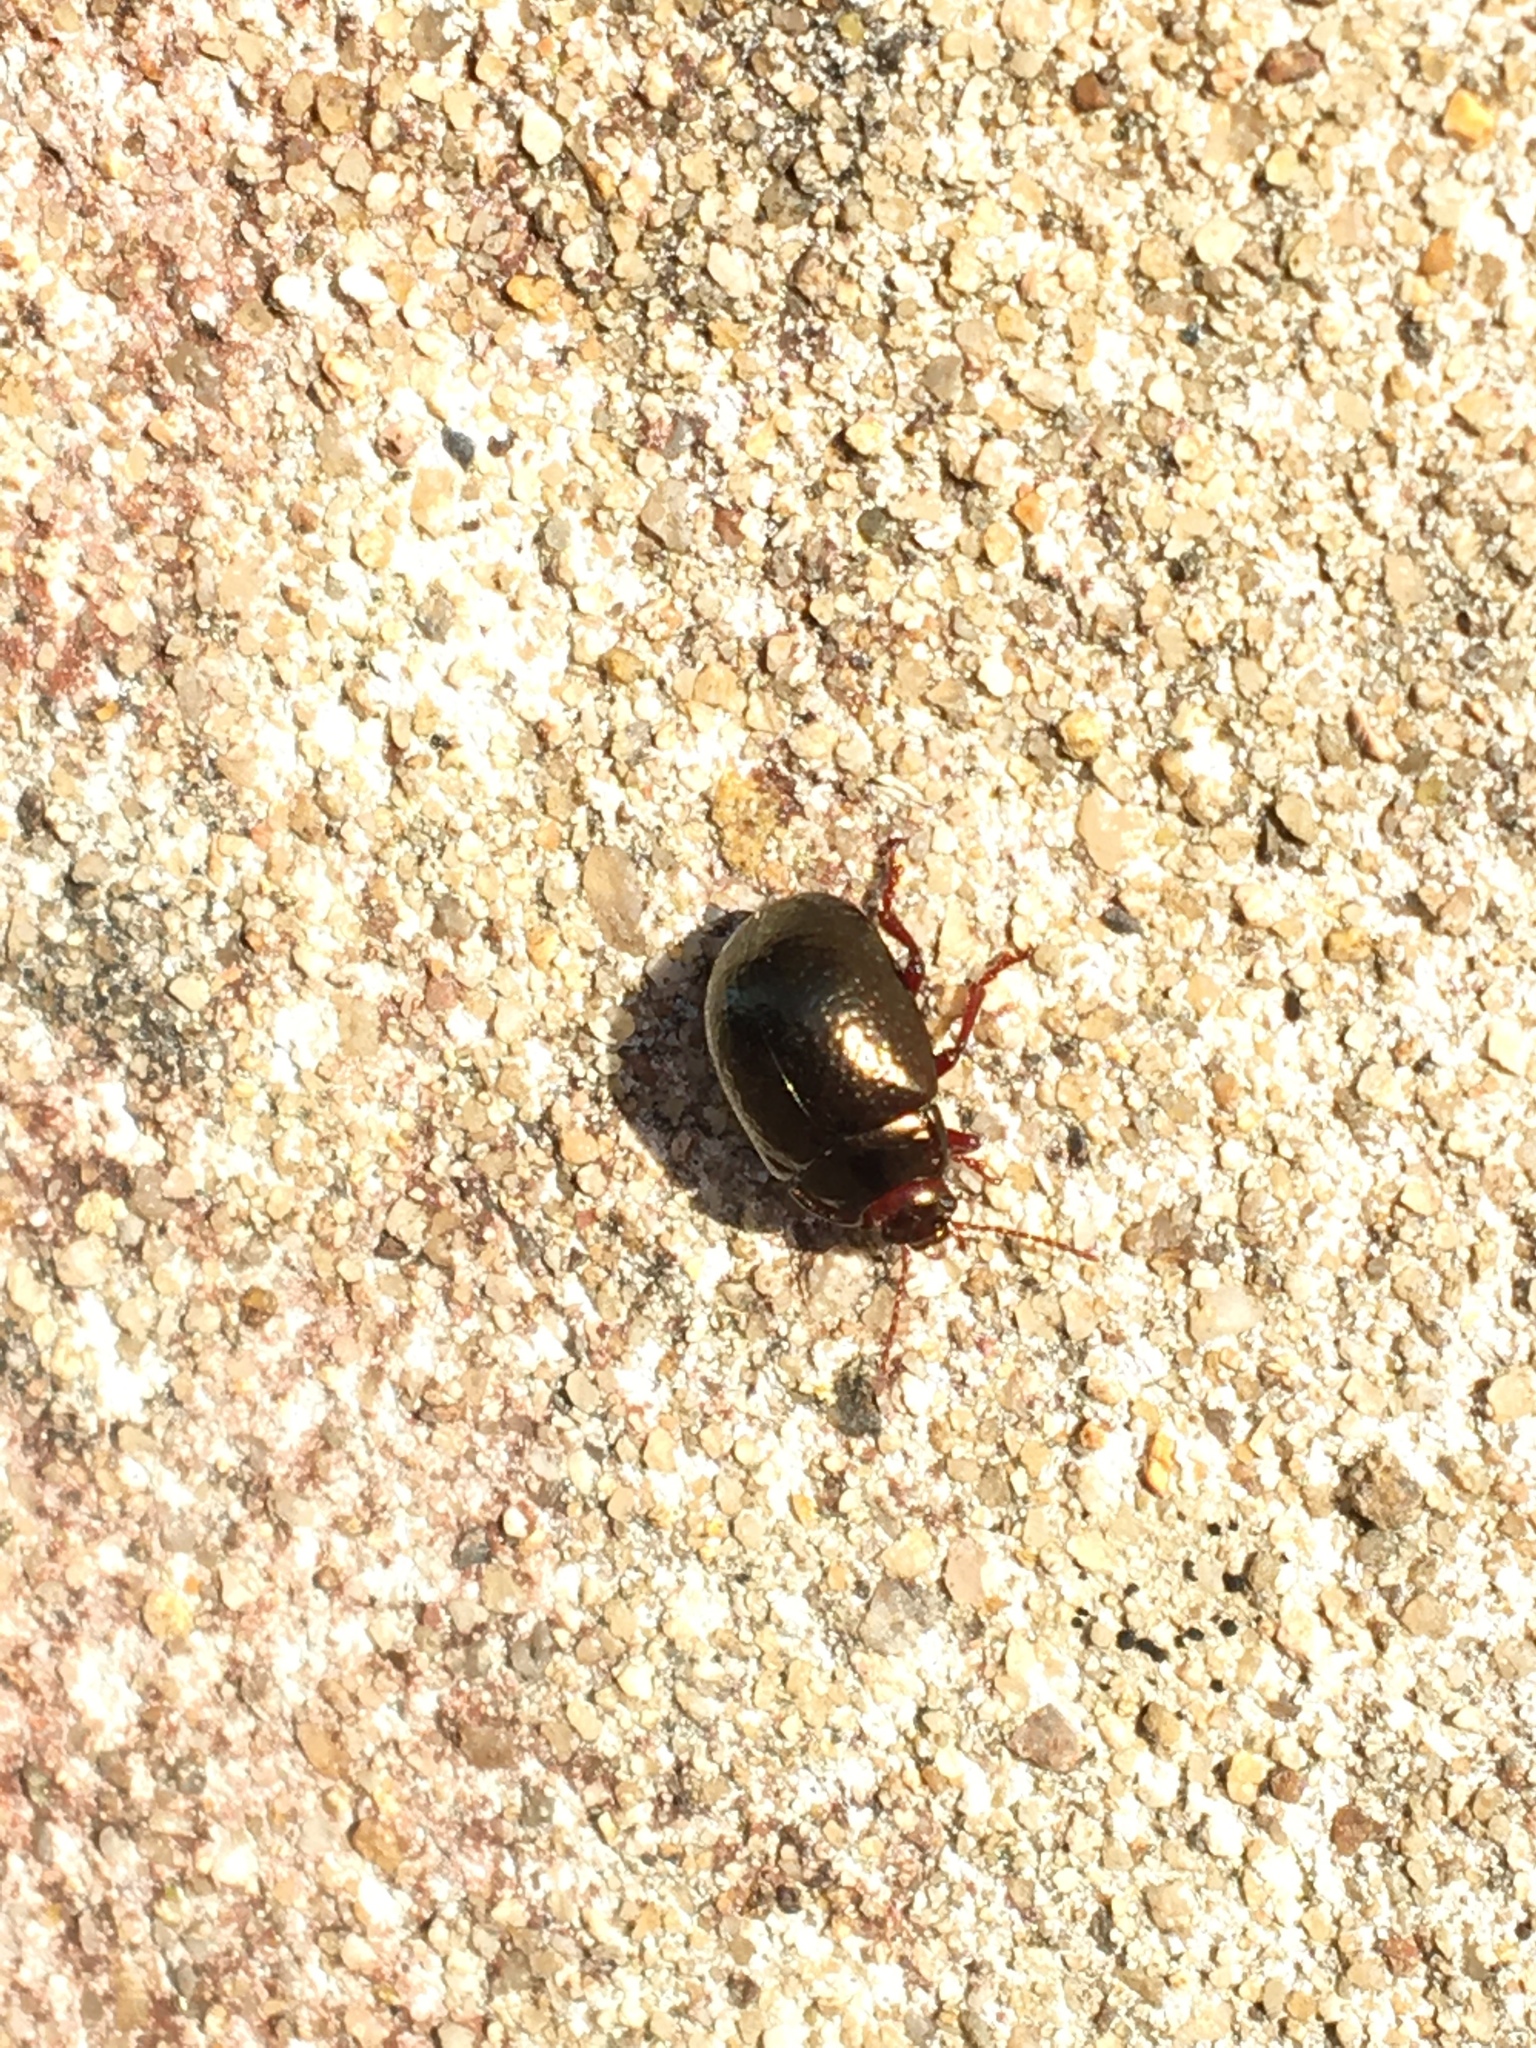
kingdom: Animalia
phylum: Arthropoda
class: Insecta
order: Coleoptera
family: Chrysomelidae
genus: Chrysolina
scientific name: Chrysolina bankii
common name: Leaf beetle
